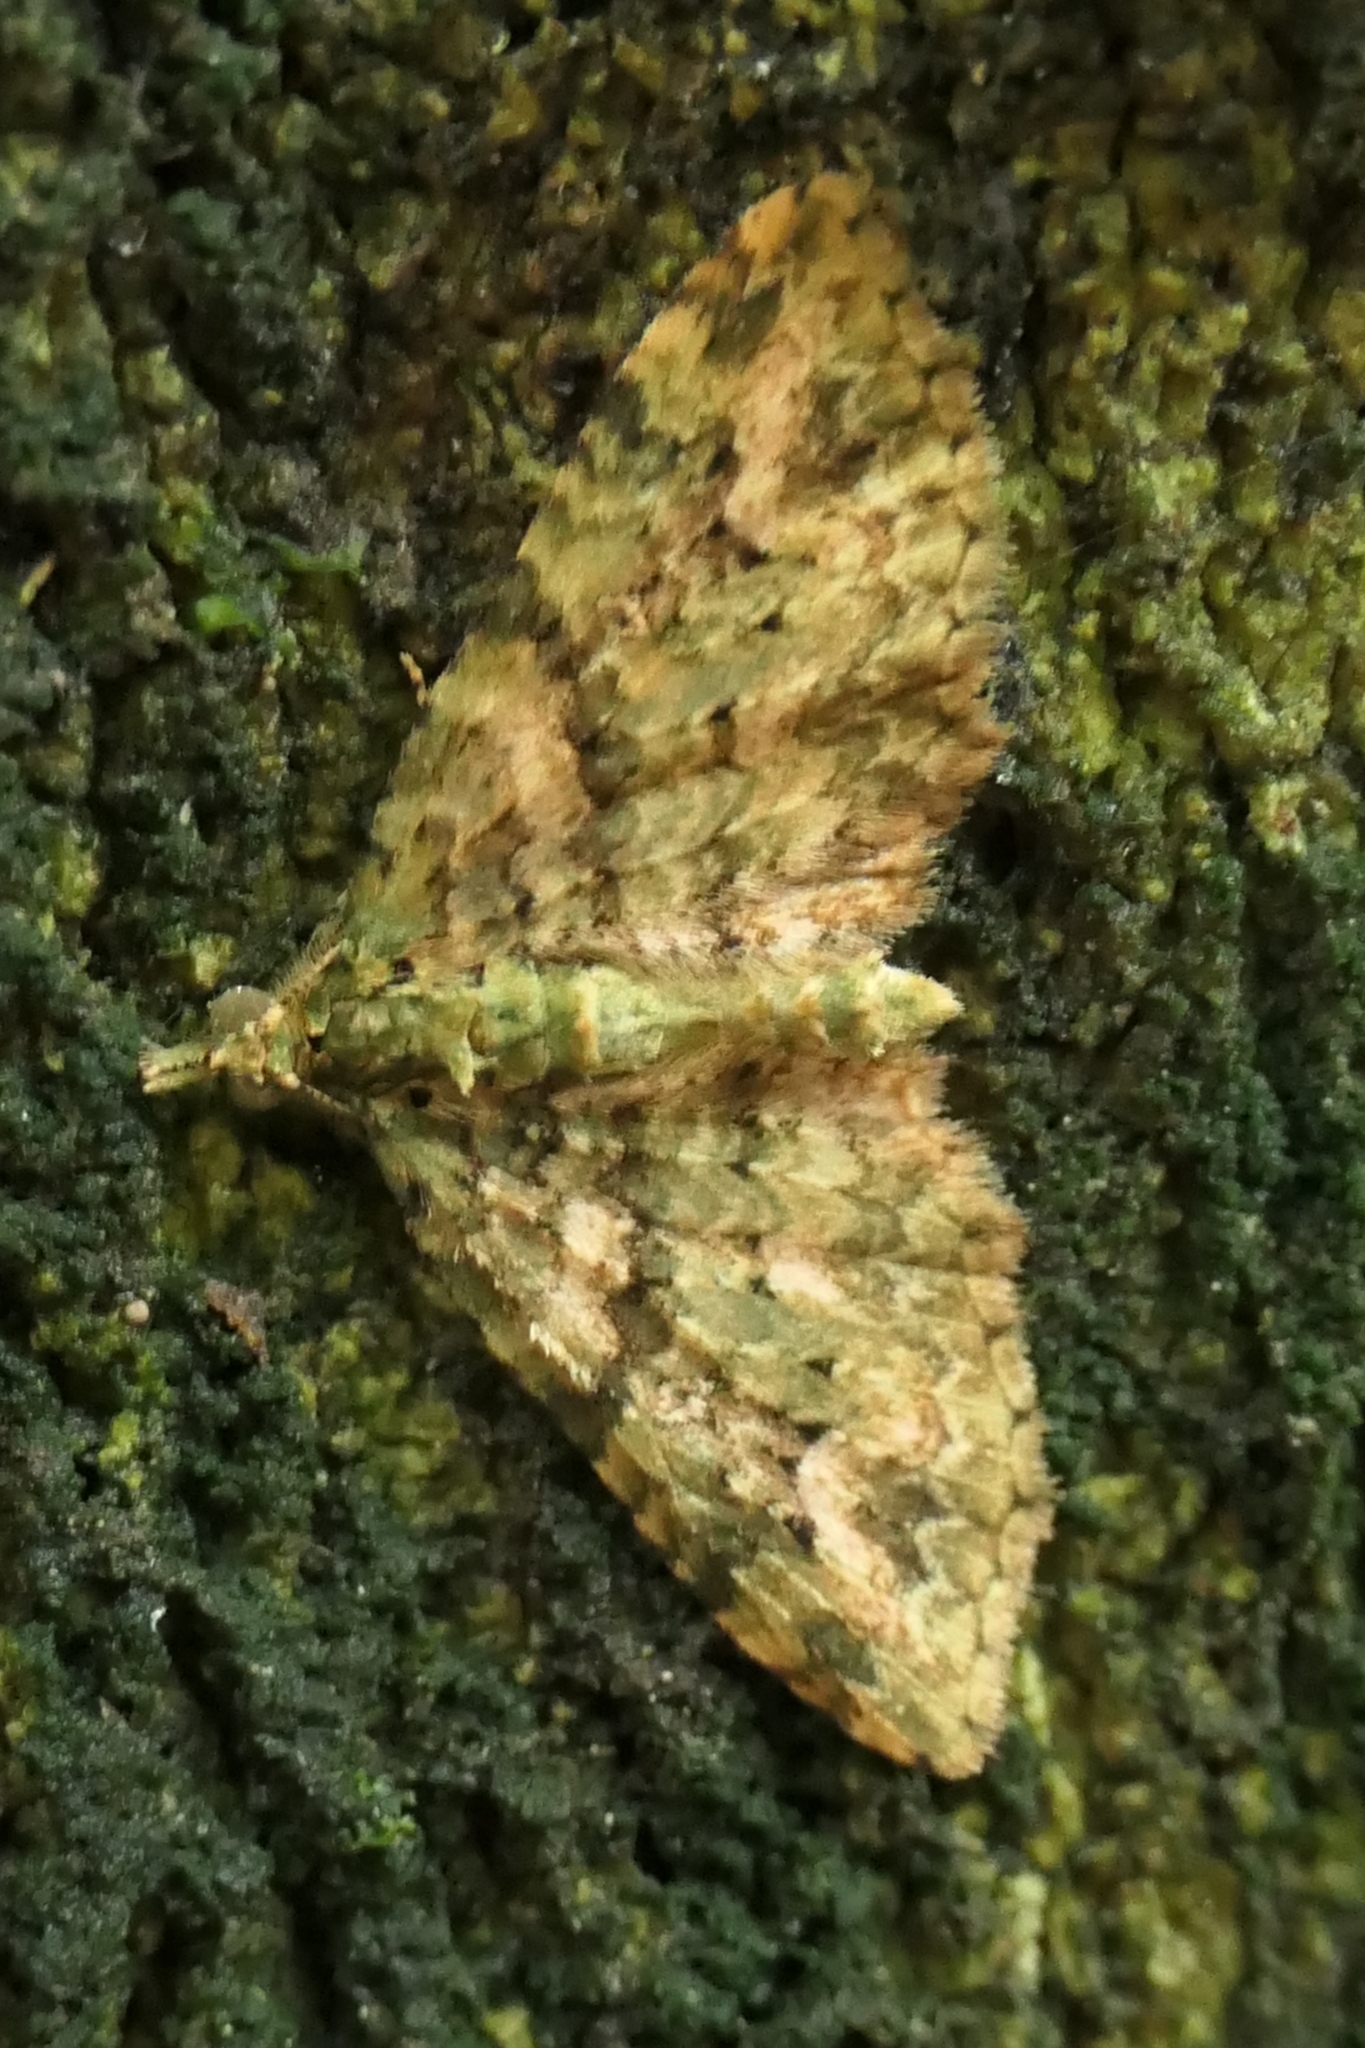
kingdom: Animalia
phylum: Arthropoda
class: Insecta
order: Lepidoptera
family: Geometridae
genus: Pasiphila
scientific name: Pasiphila muscosata
